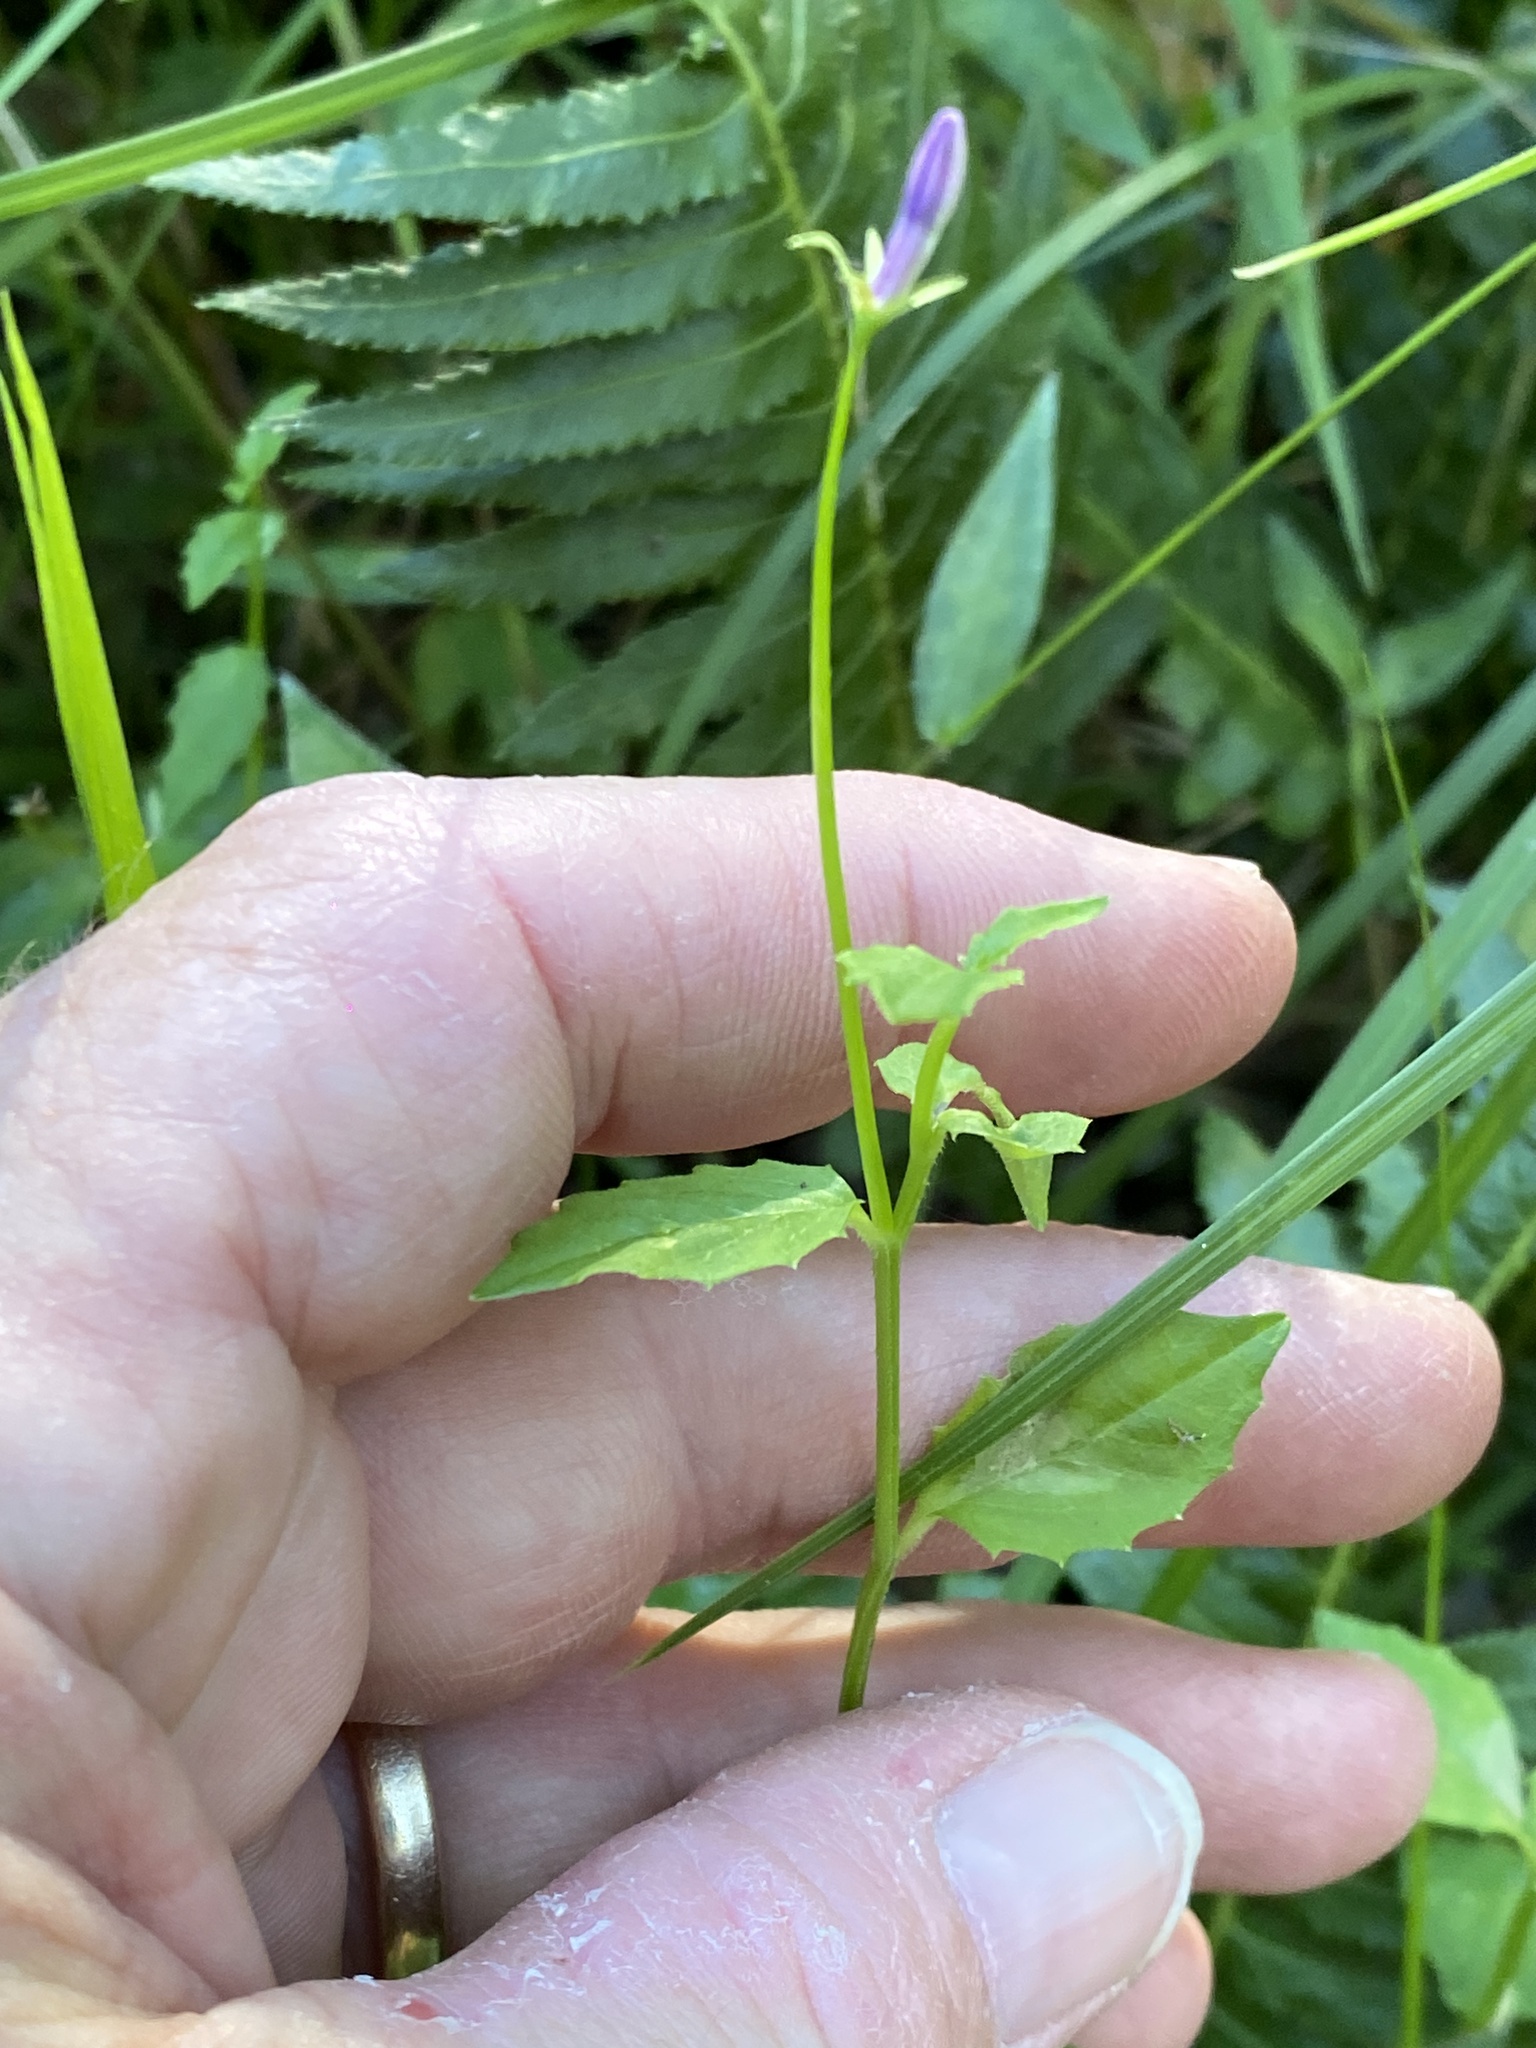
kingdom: Plantae
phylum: Tracheophyta
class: Magnoliopsida
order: Asterales
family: Campanulaceae
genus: Lobelia
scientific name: Lobelia purpurascens
